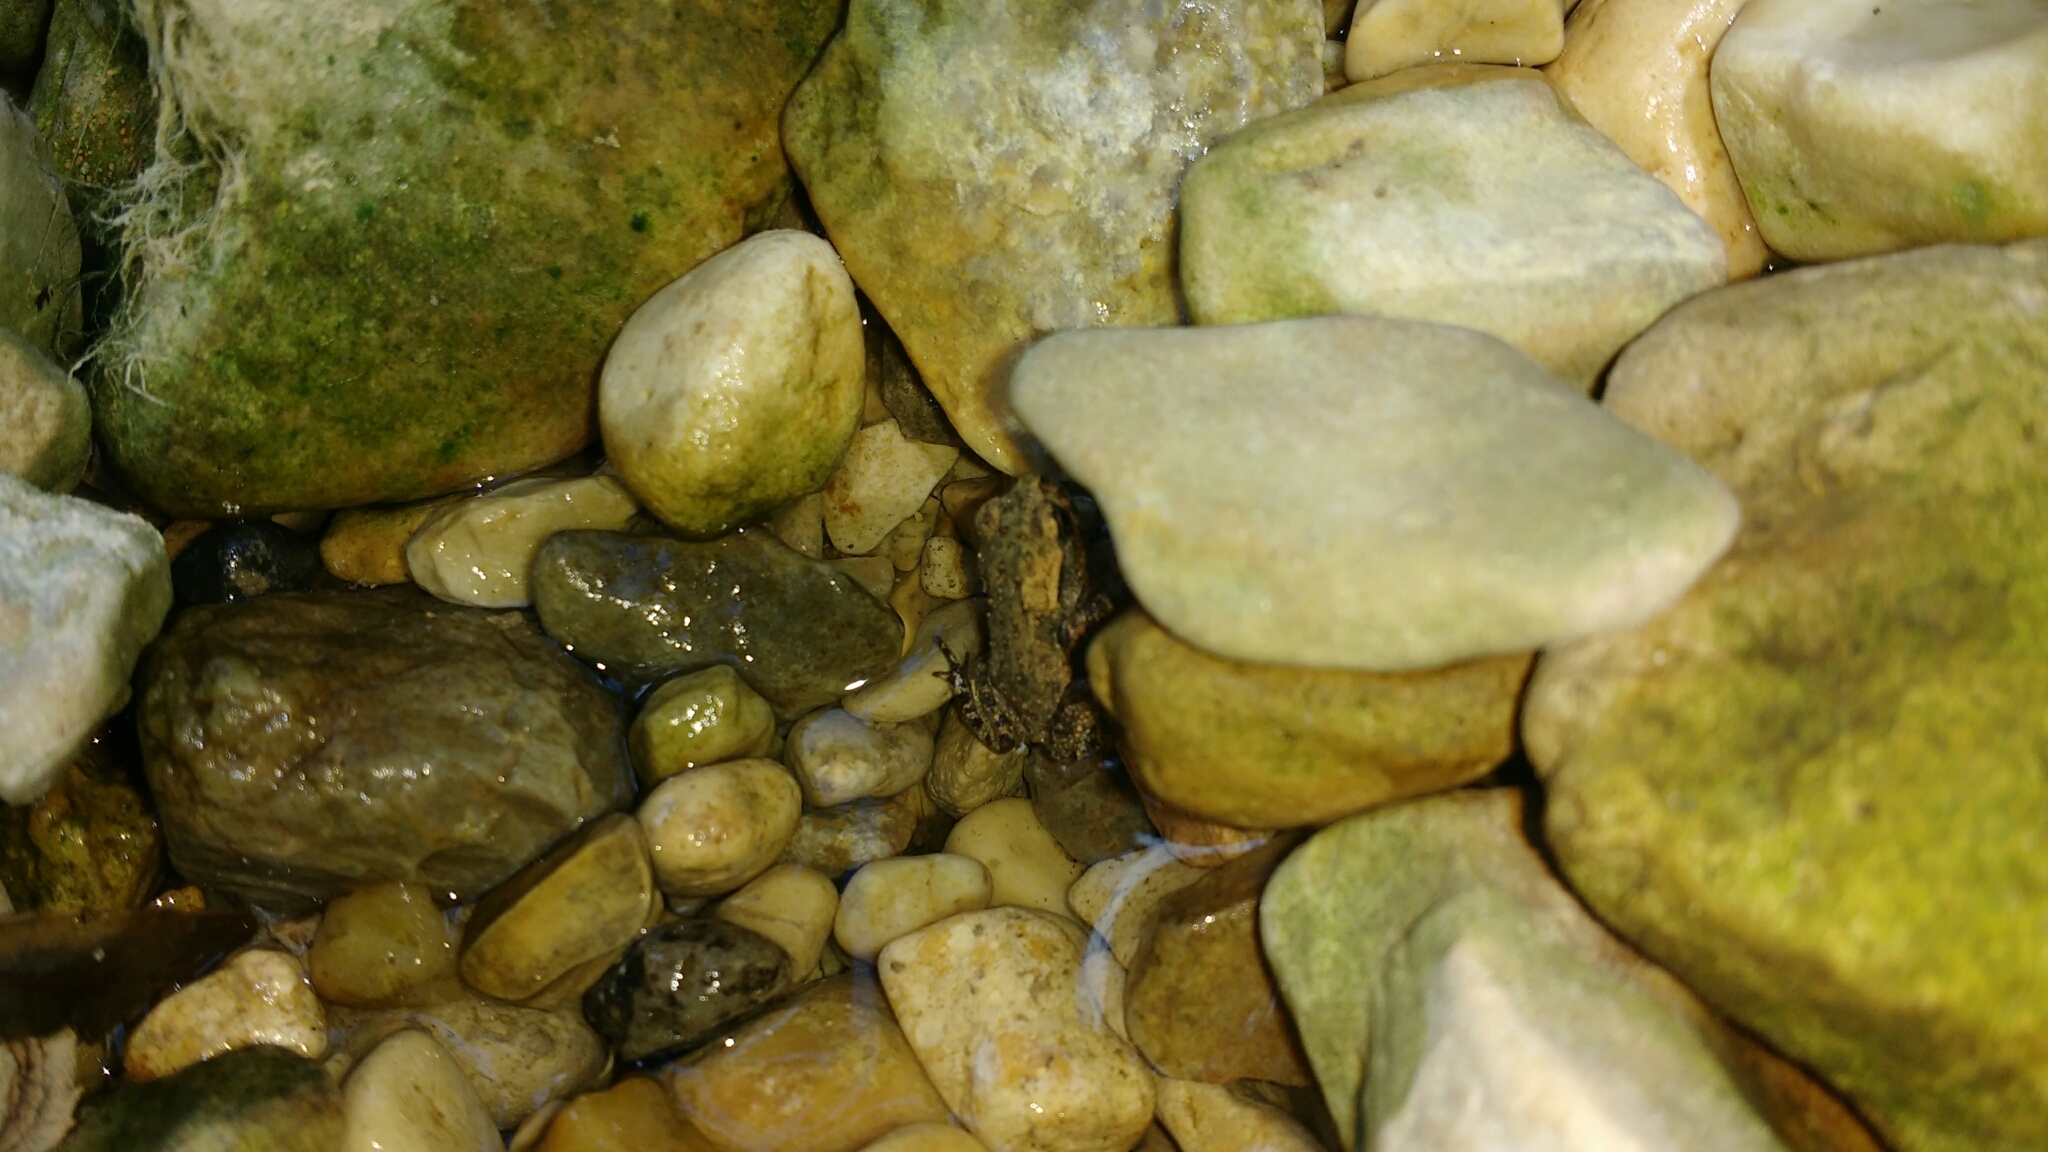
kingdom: Animalia
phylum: Chordata
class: Amphibia
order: Anura
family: Bufonidae
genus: Bufo
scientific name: Bufo spinosus
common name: Western common toad
